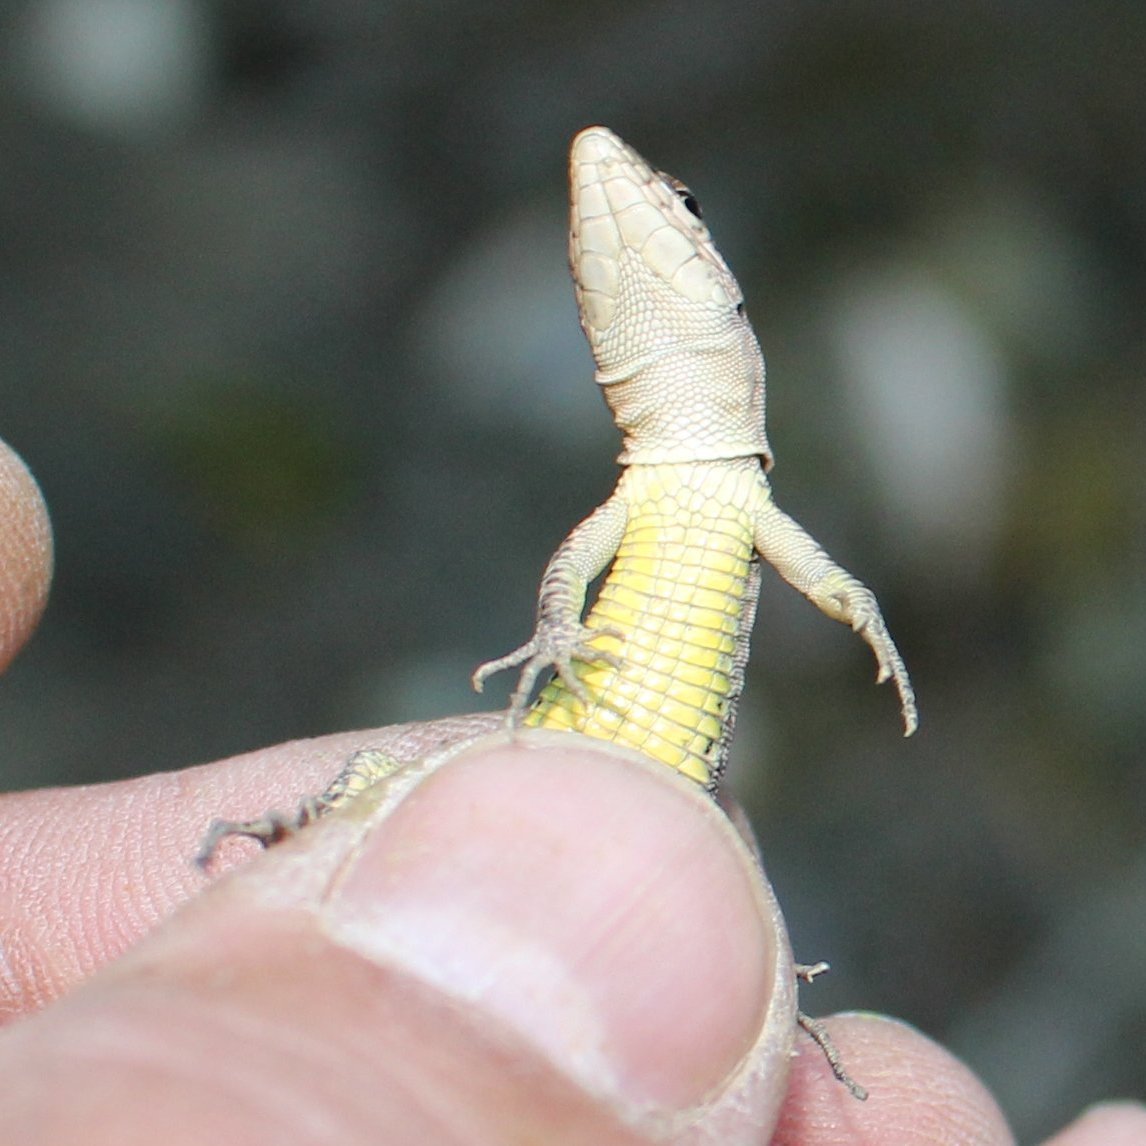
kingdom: Animalia
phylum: Chordata
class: Squamata
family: Lacertidae
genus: Darevskia
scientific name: Darevskia brauneri
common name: Brauner's rock lizard
